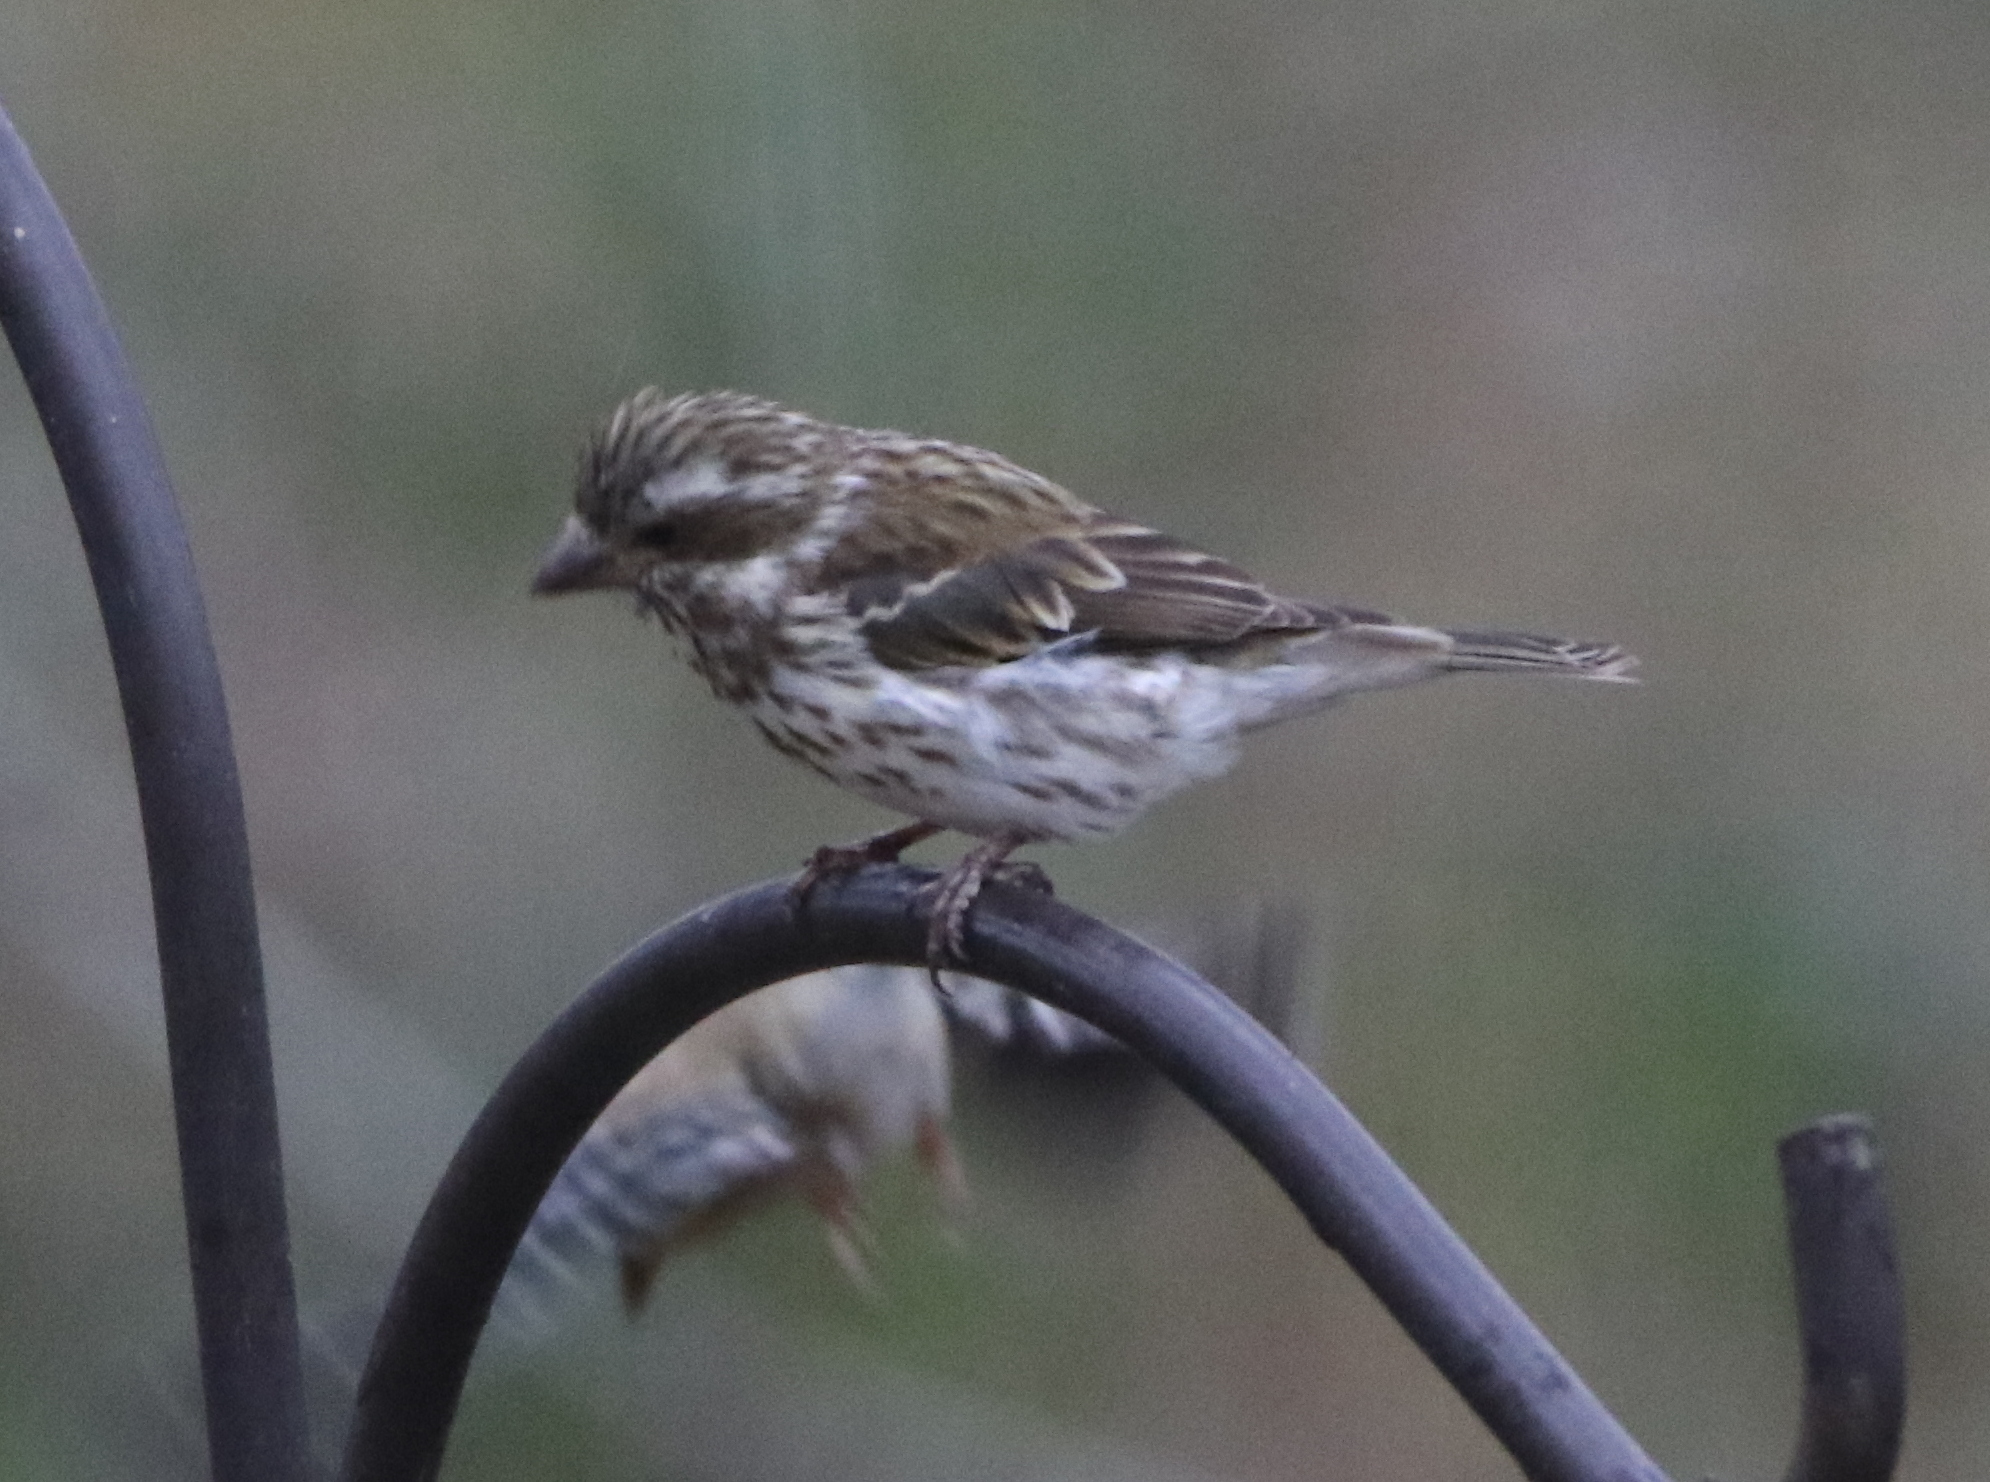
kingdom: Animalia
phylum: Chordata
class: Aves
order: Passeriformes
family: Fringillidae
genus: Haemorhous
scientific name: Haemorhous purpureus
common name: Purple finch
